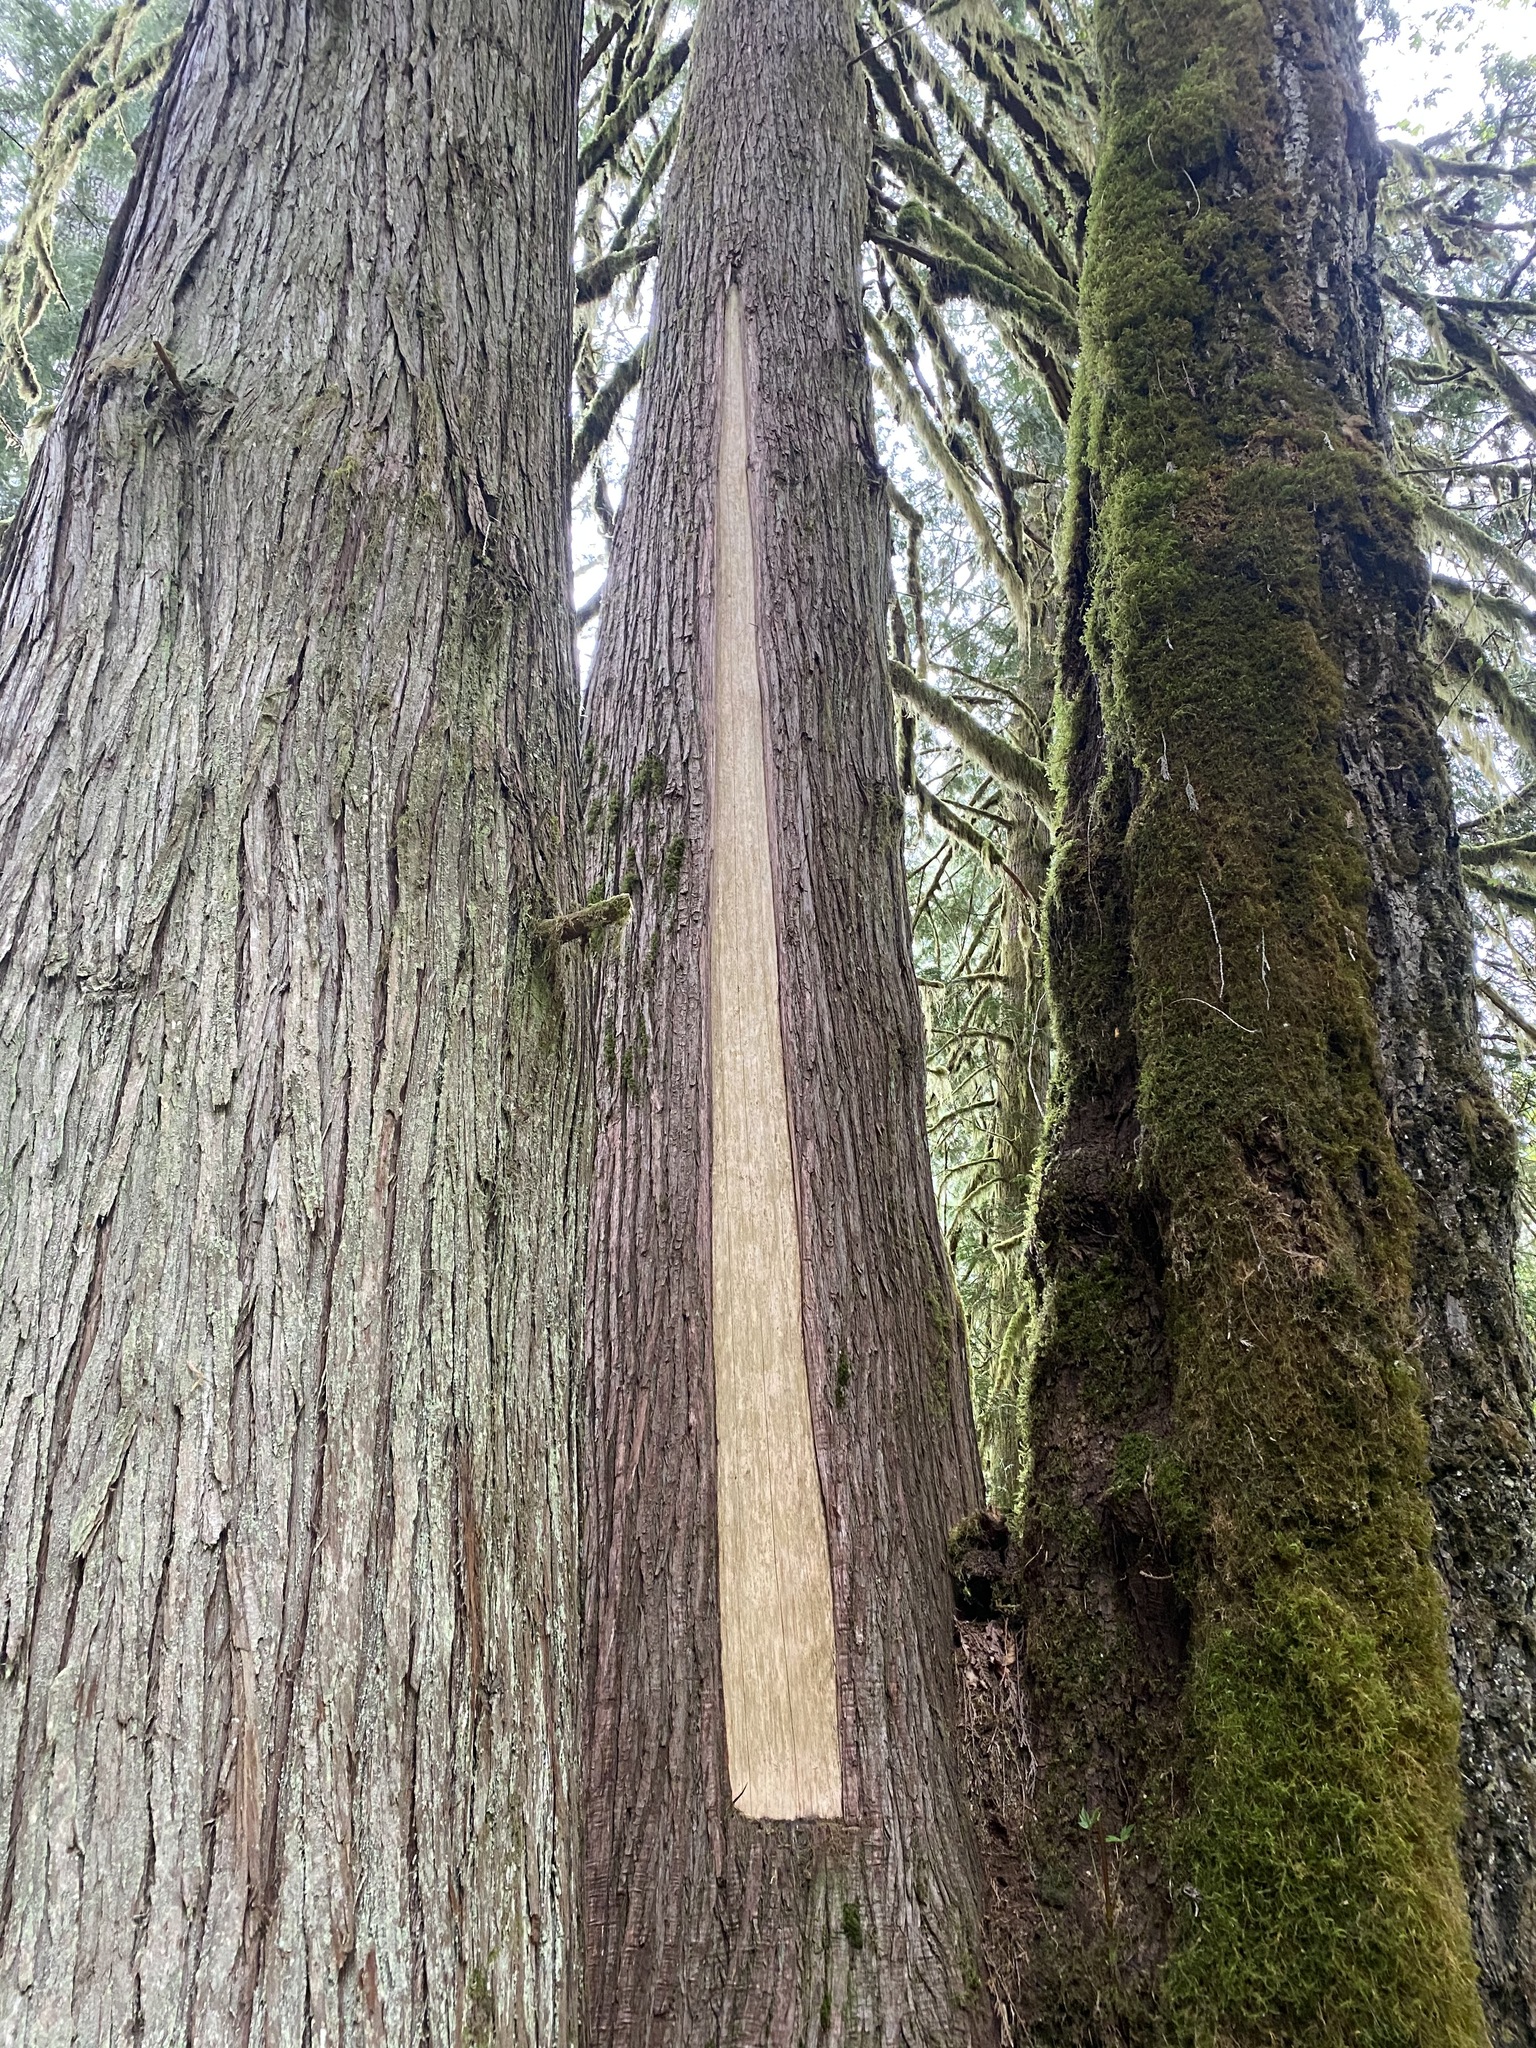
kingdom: Plantae
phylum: Tracheophyta
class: Pinopsida
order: Pinales
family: Cupressaceae
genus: Thuja
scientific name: Thuja plicata
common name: Western red-cedar
